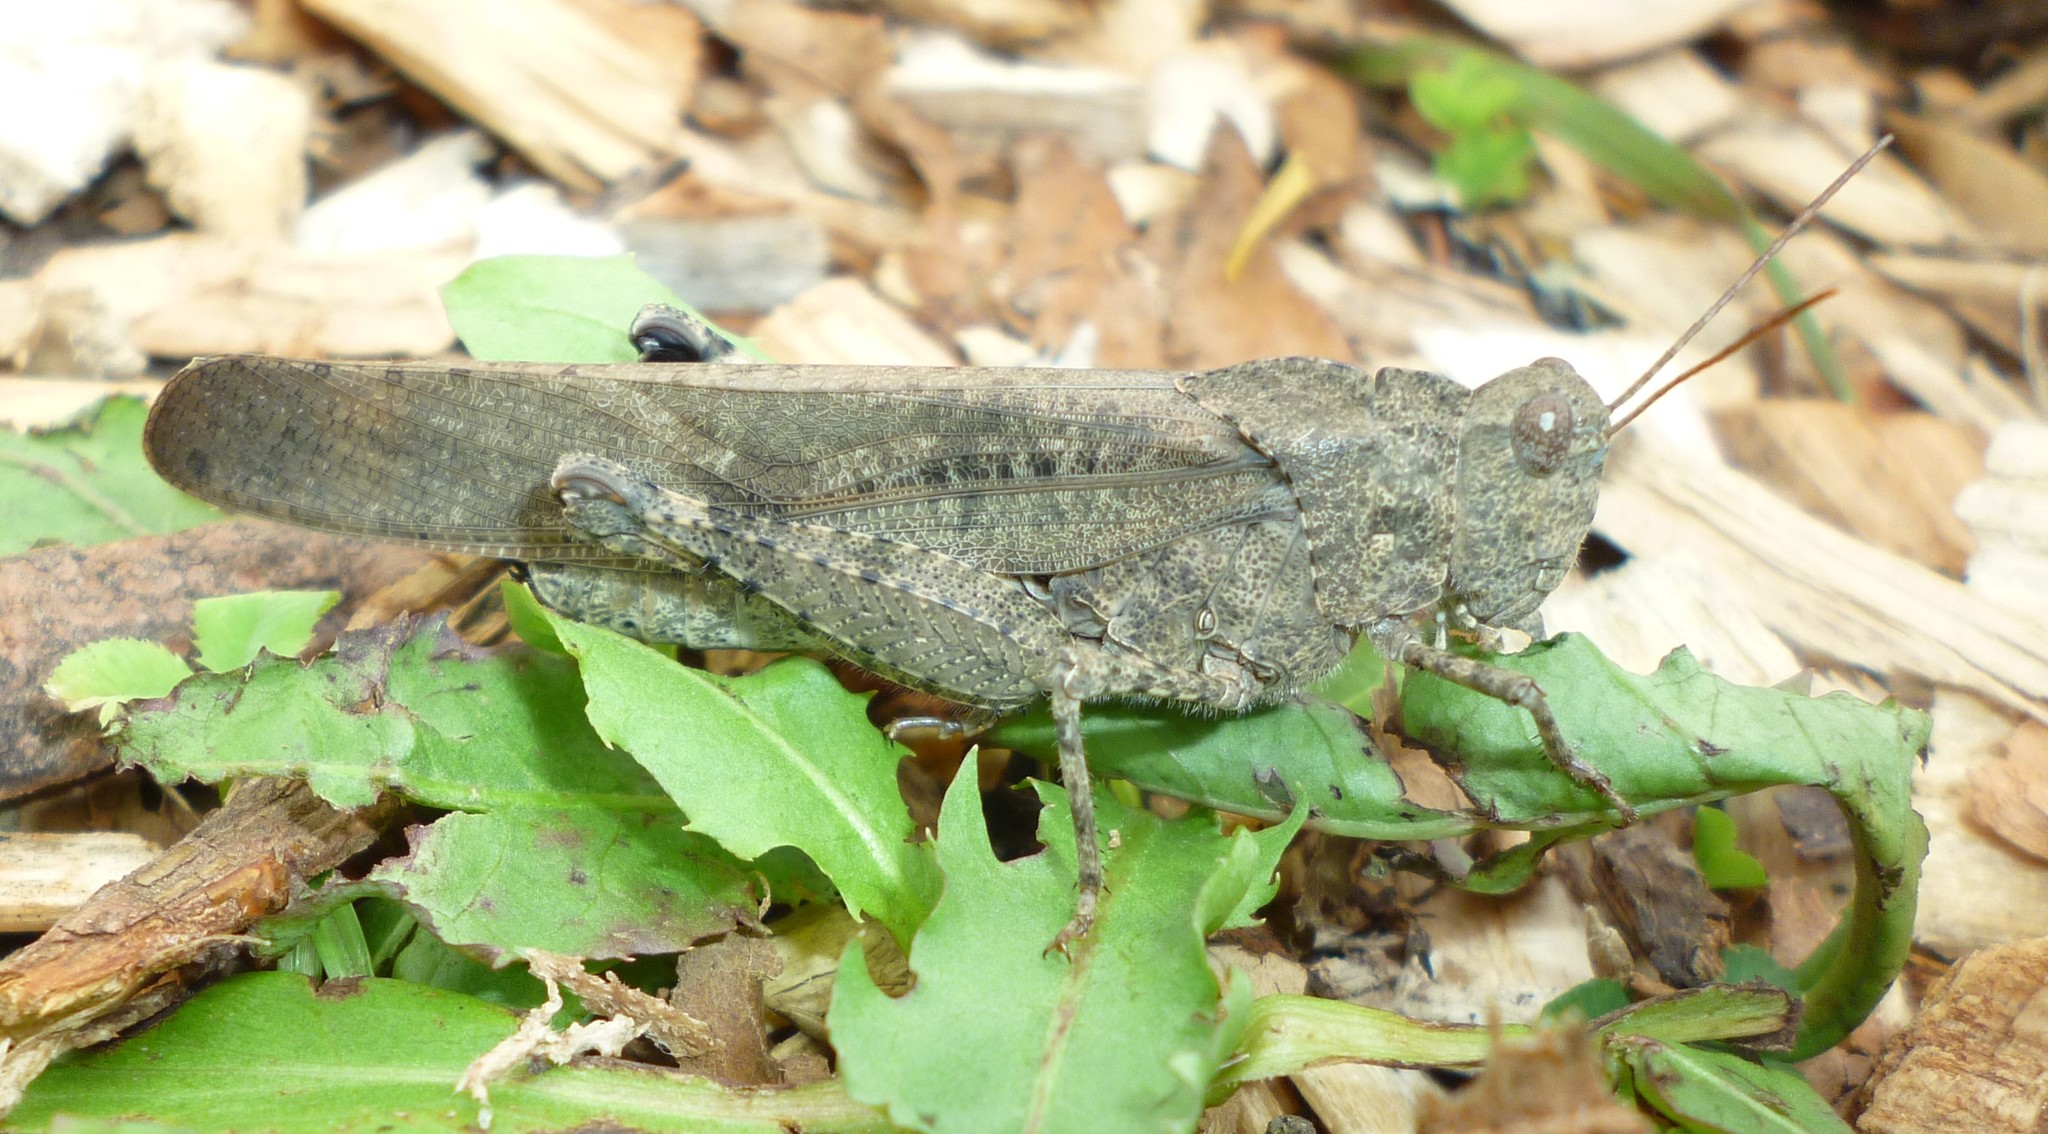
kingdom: Animalia
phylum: Arthropoda
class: Insecta
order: Orthoptera
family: Acrididae
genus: Dissosteira
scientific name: Dissosteira carolina
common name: Carolina grasshopper
